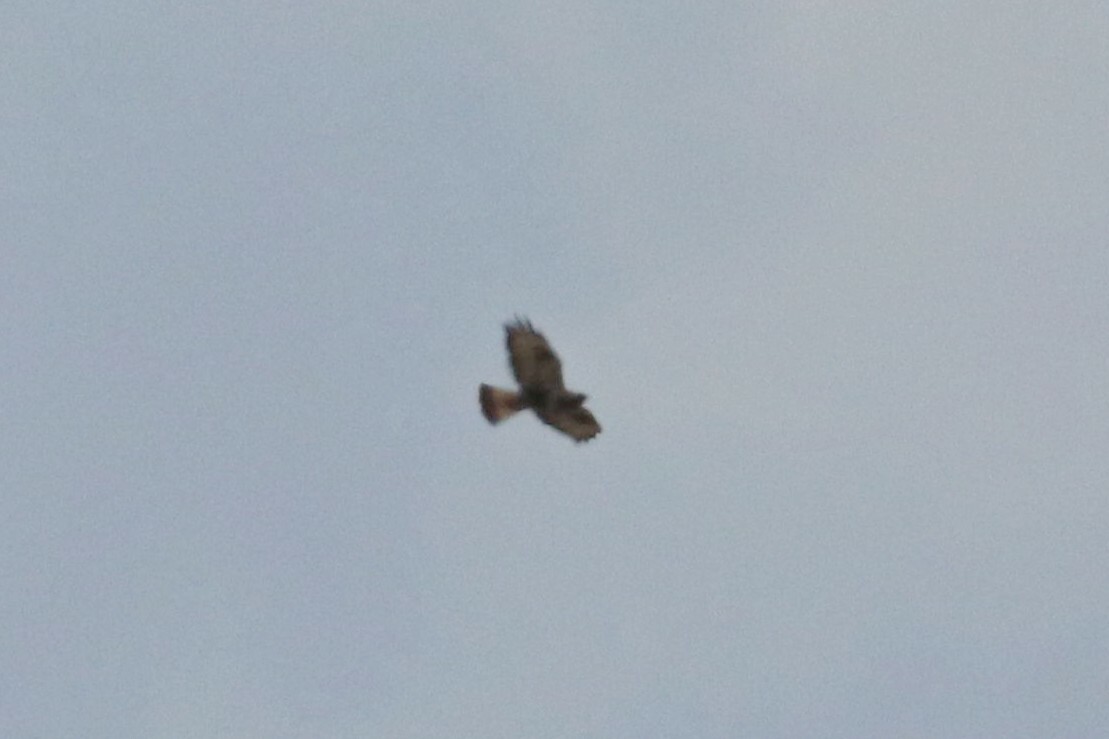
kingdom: Animalia
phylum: Chordata
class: Aves
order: Accipitriformes
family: Accipitridae
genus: Buteo
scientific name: Buteo lagopus
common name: Rough-legged buzzard
